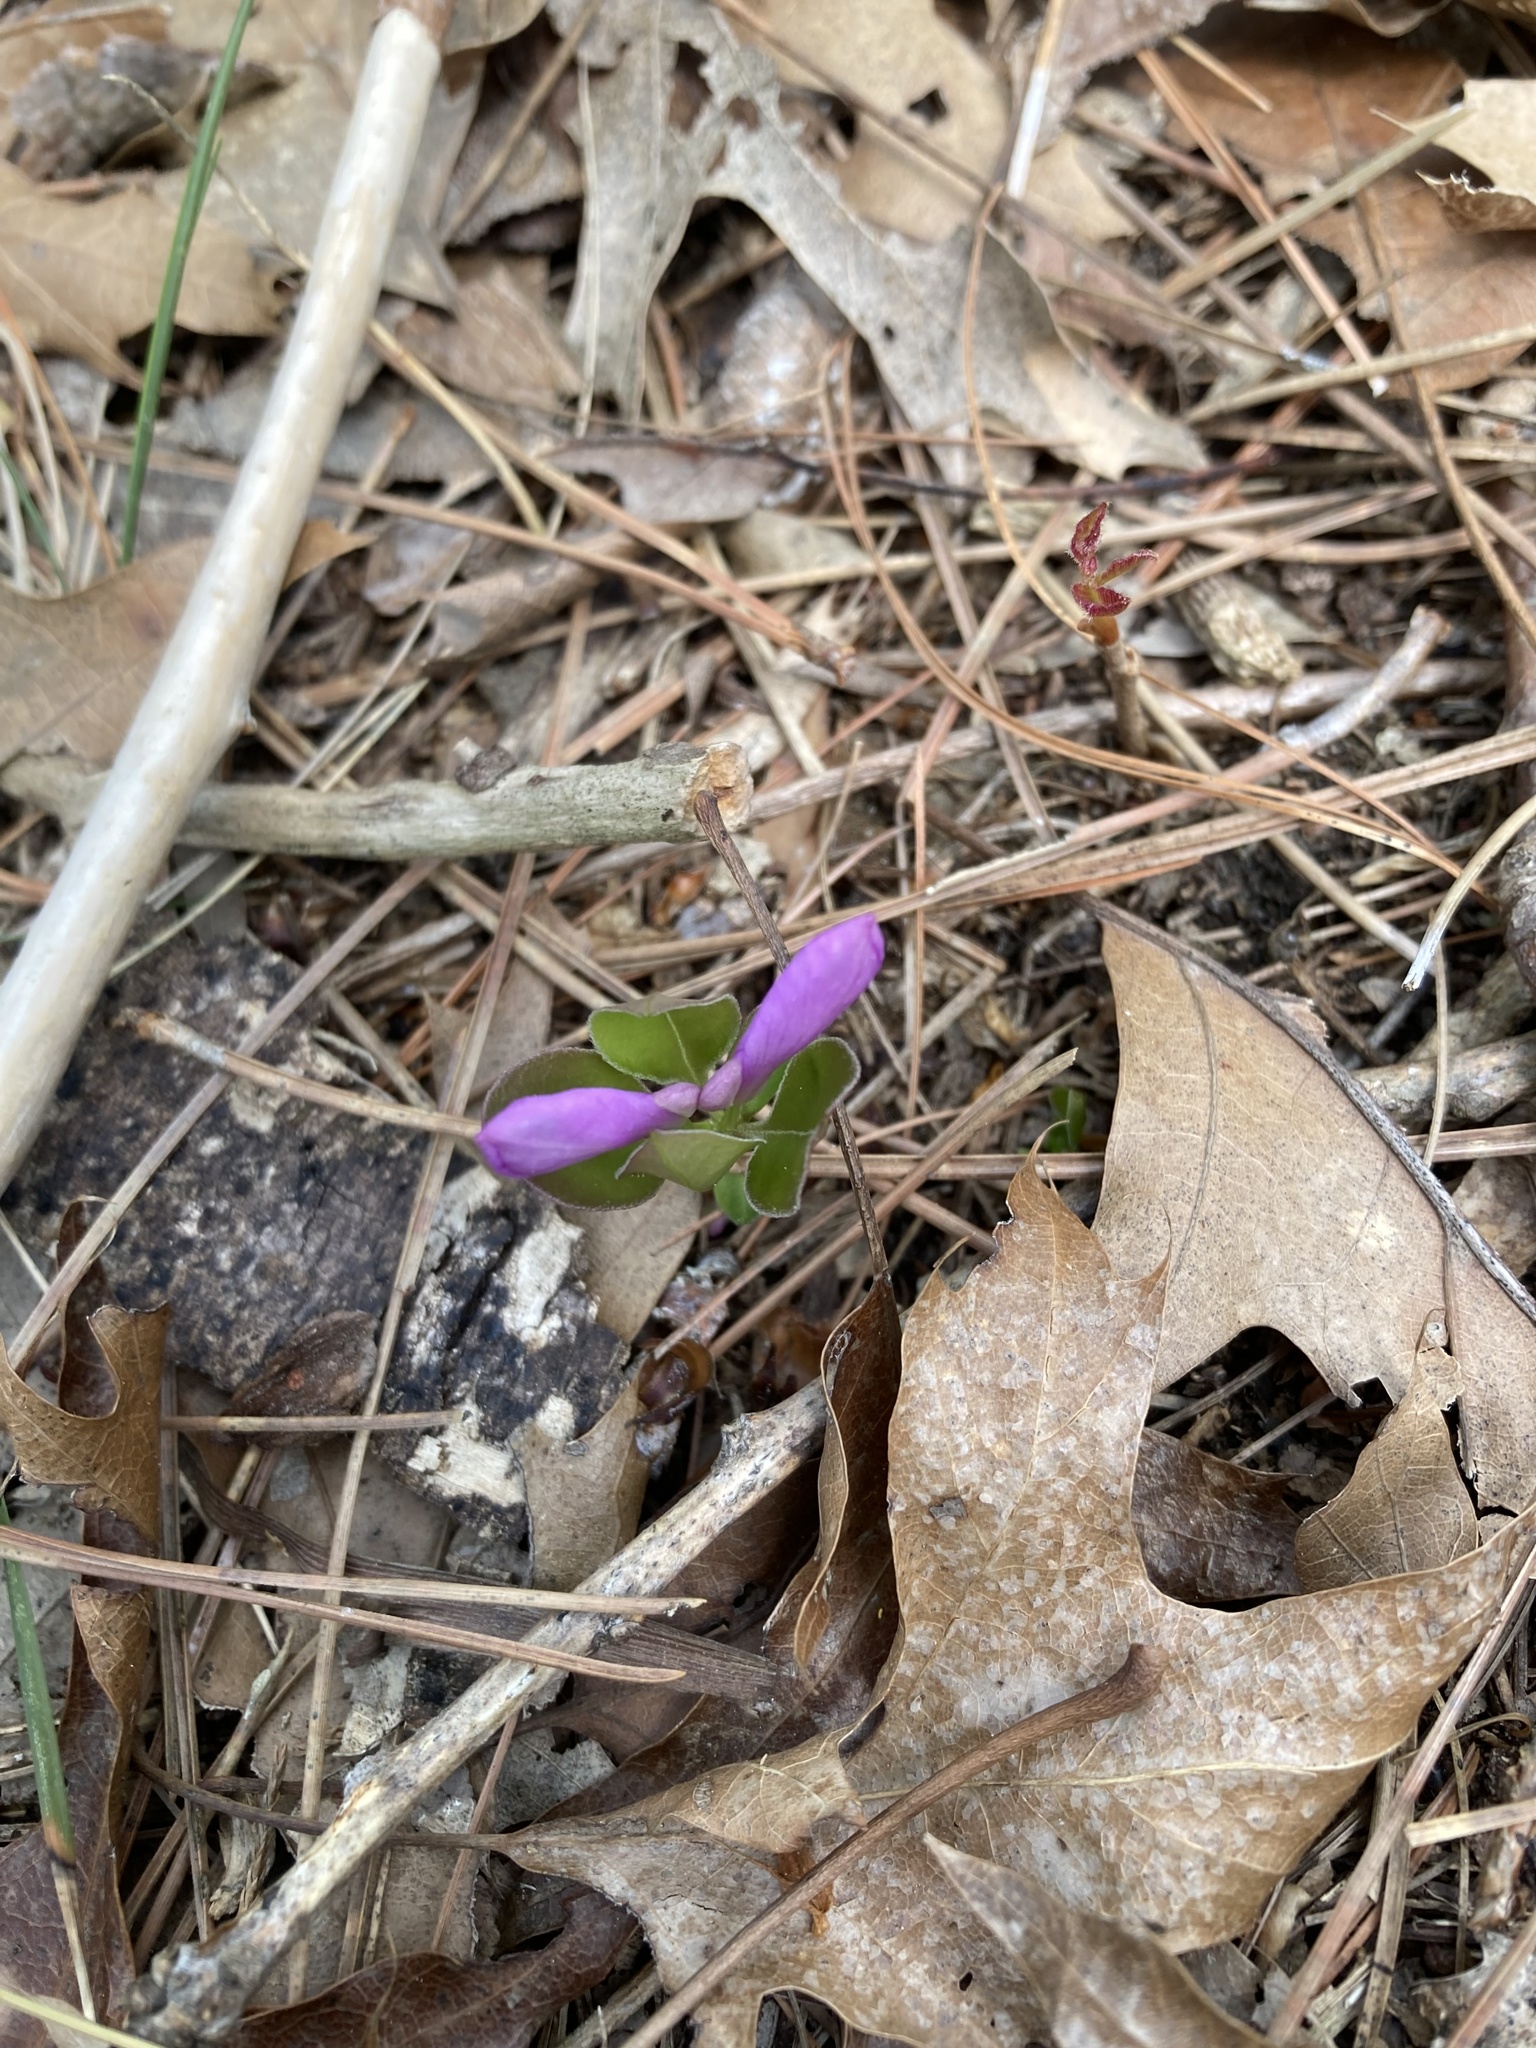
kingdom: Plantae
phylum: Tracheophyta
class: Magnoliopsida
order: Fabales
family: Polygalaceae
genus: Polygaloides
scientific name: Polygaloides paucifolia
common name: Bird-on-the-wing
